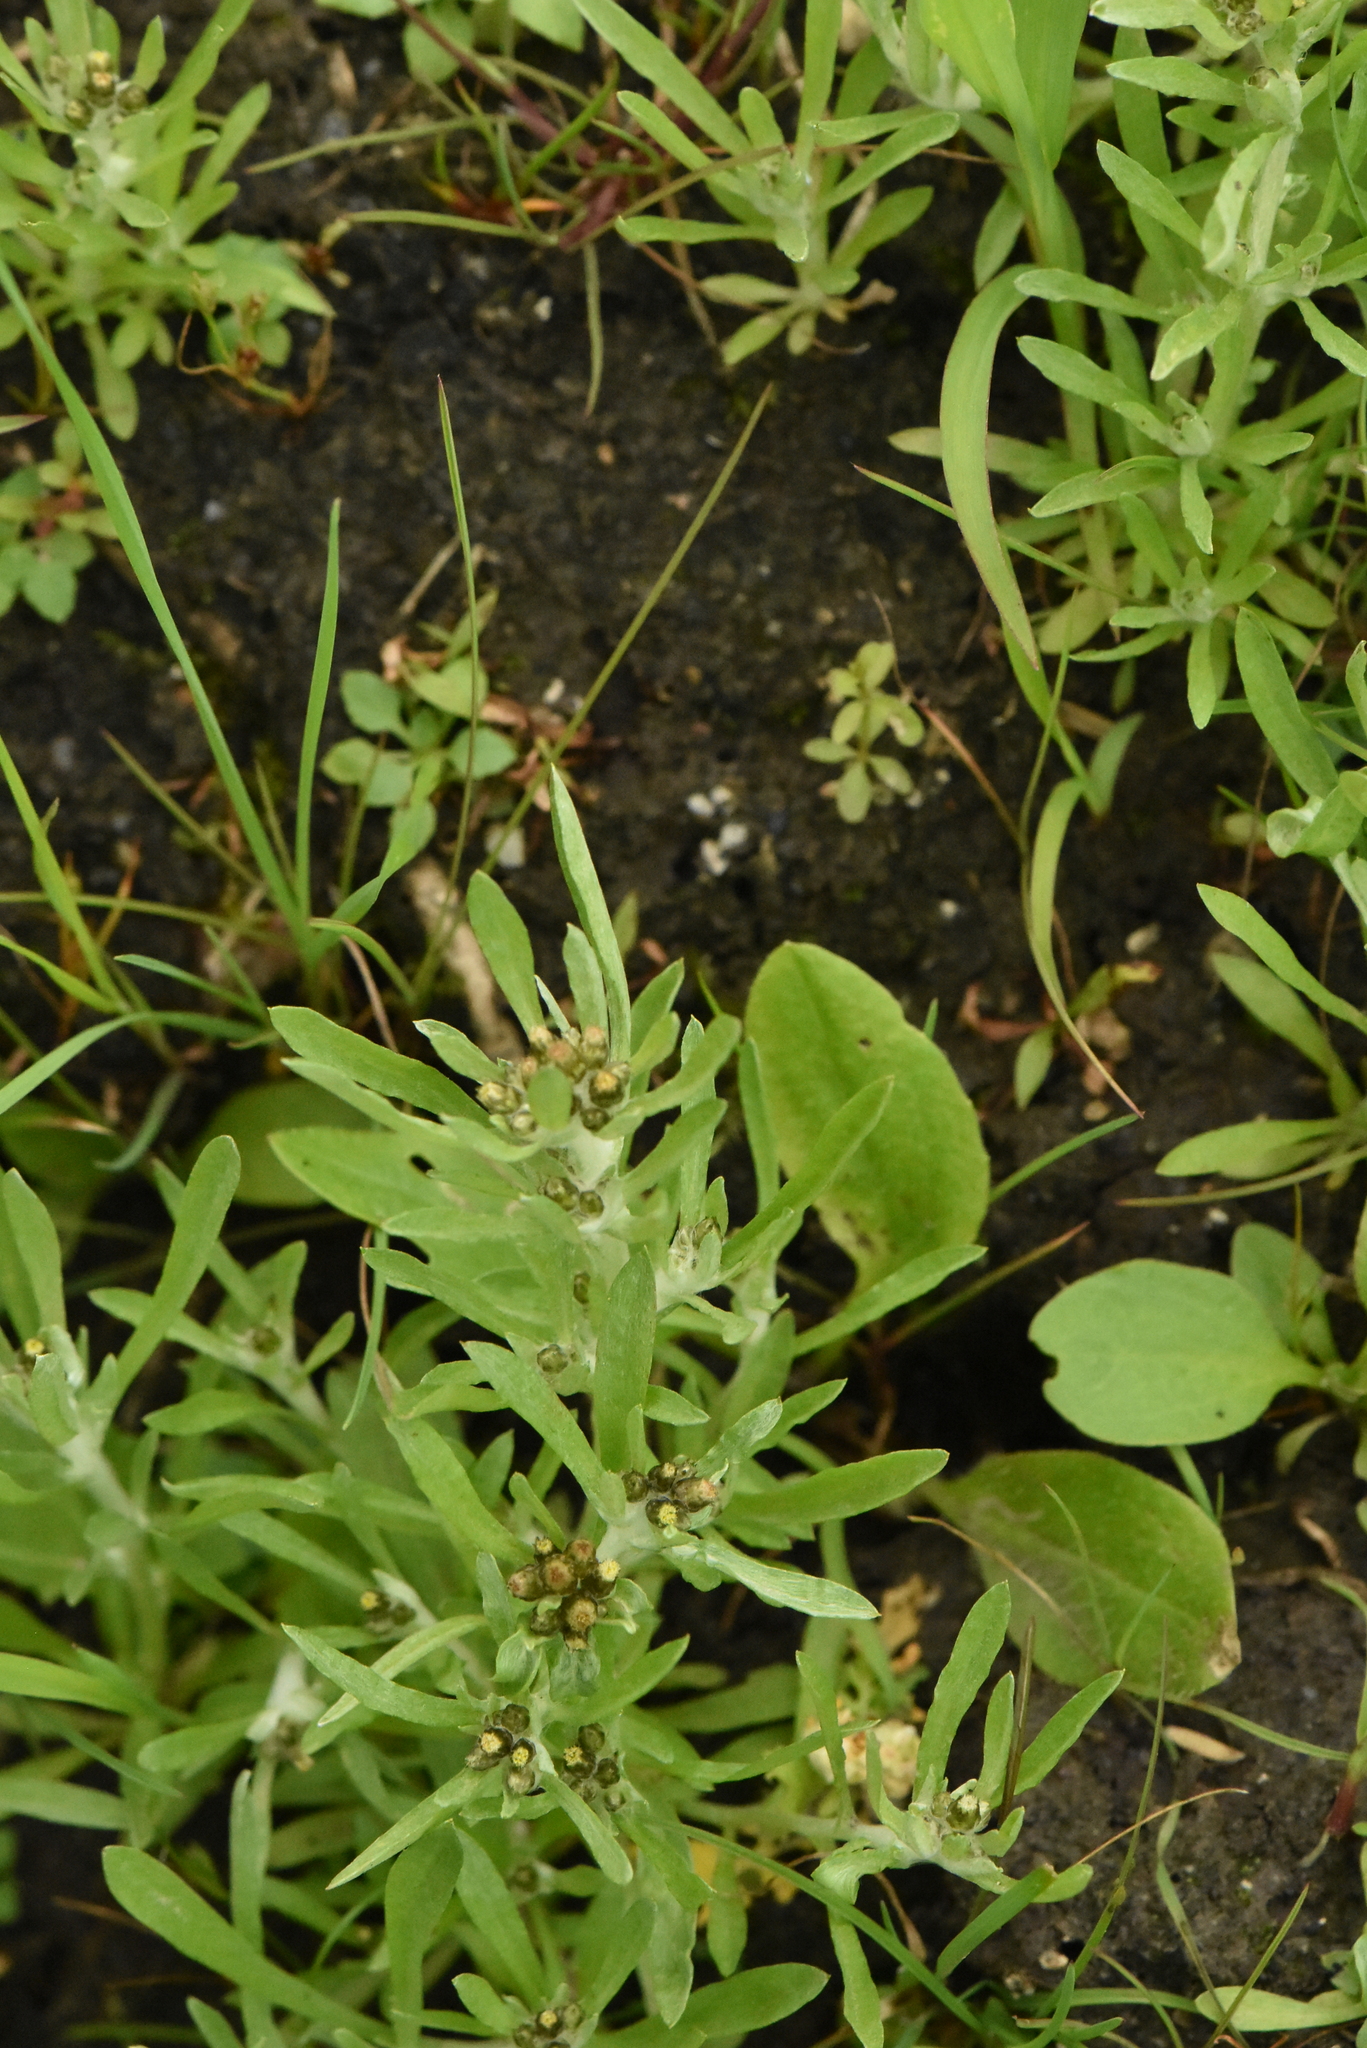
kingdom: Plantae
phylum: Tracheophyta
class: Magnoliopsida
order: Asterales
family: Asteraceae
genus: Gnaphalium
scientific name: Gnaphalium uliginosum
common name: Marsh cudweed
